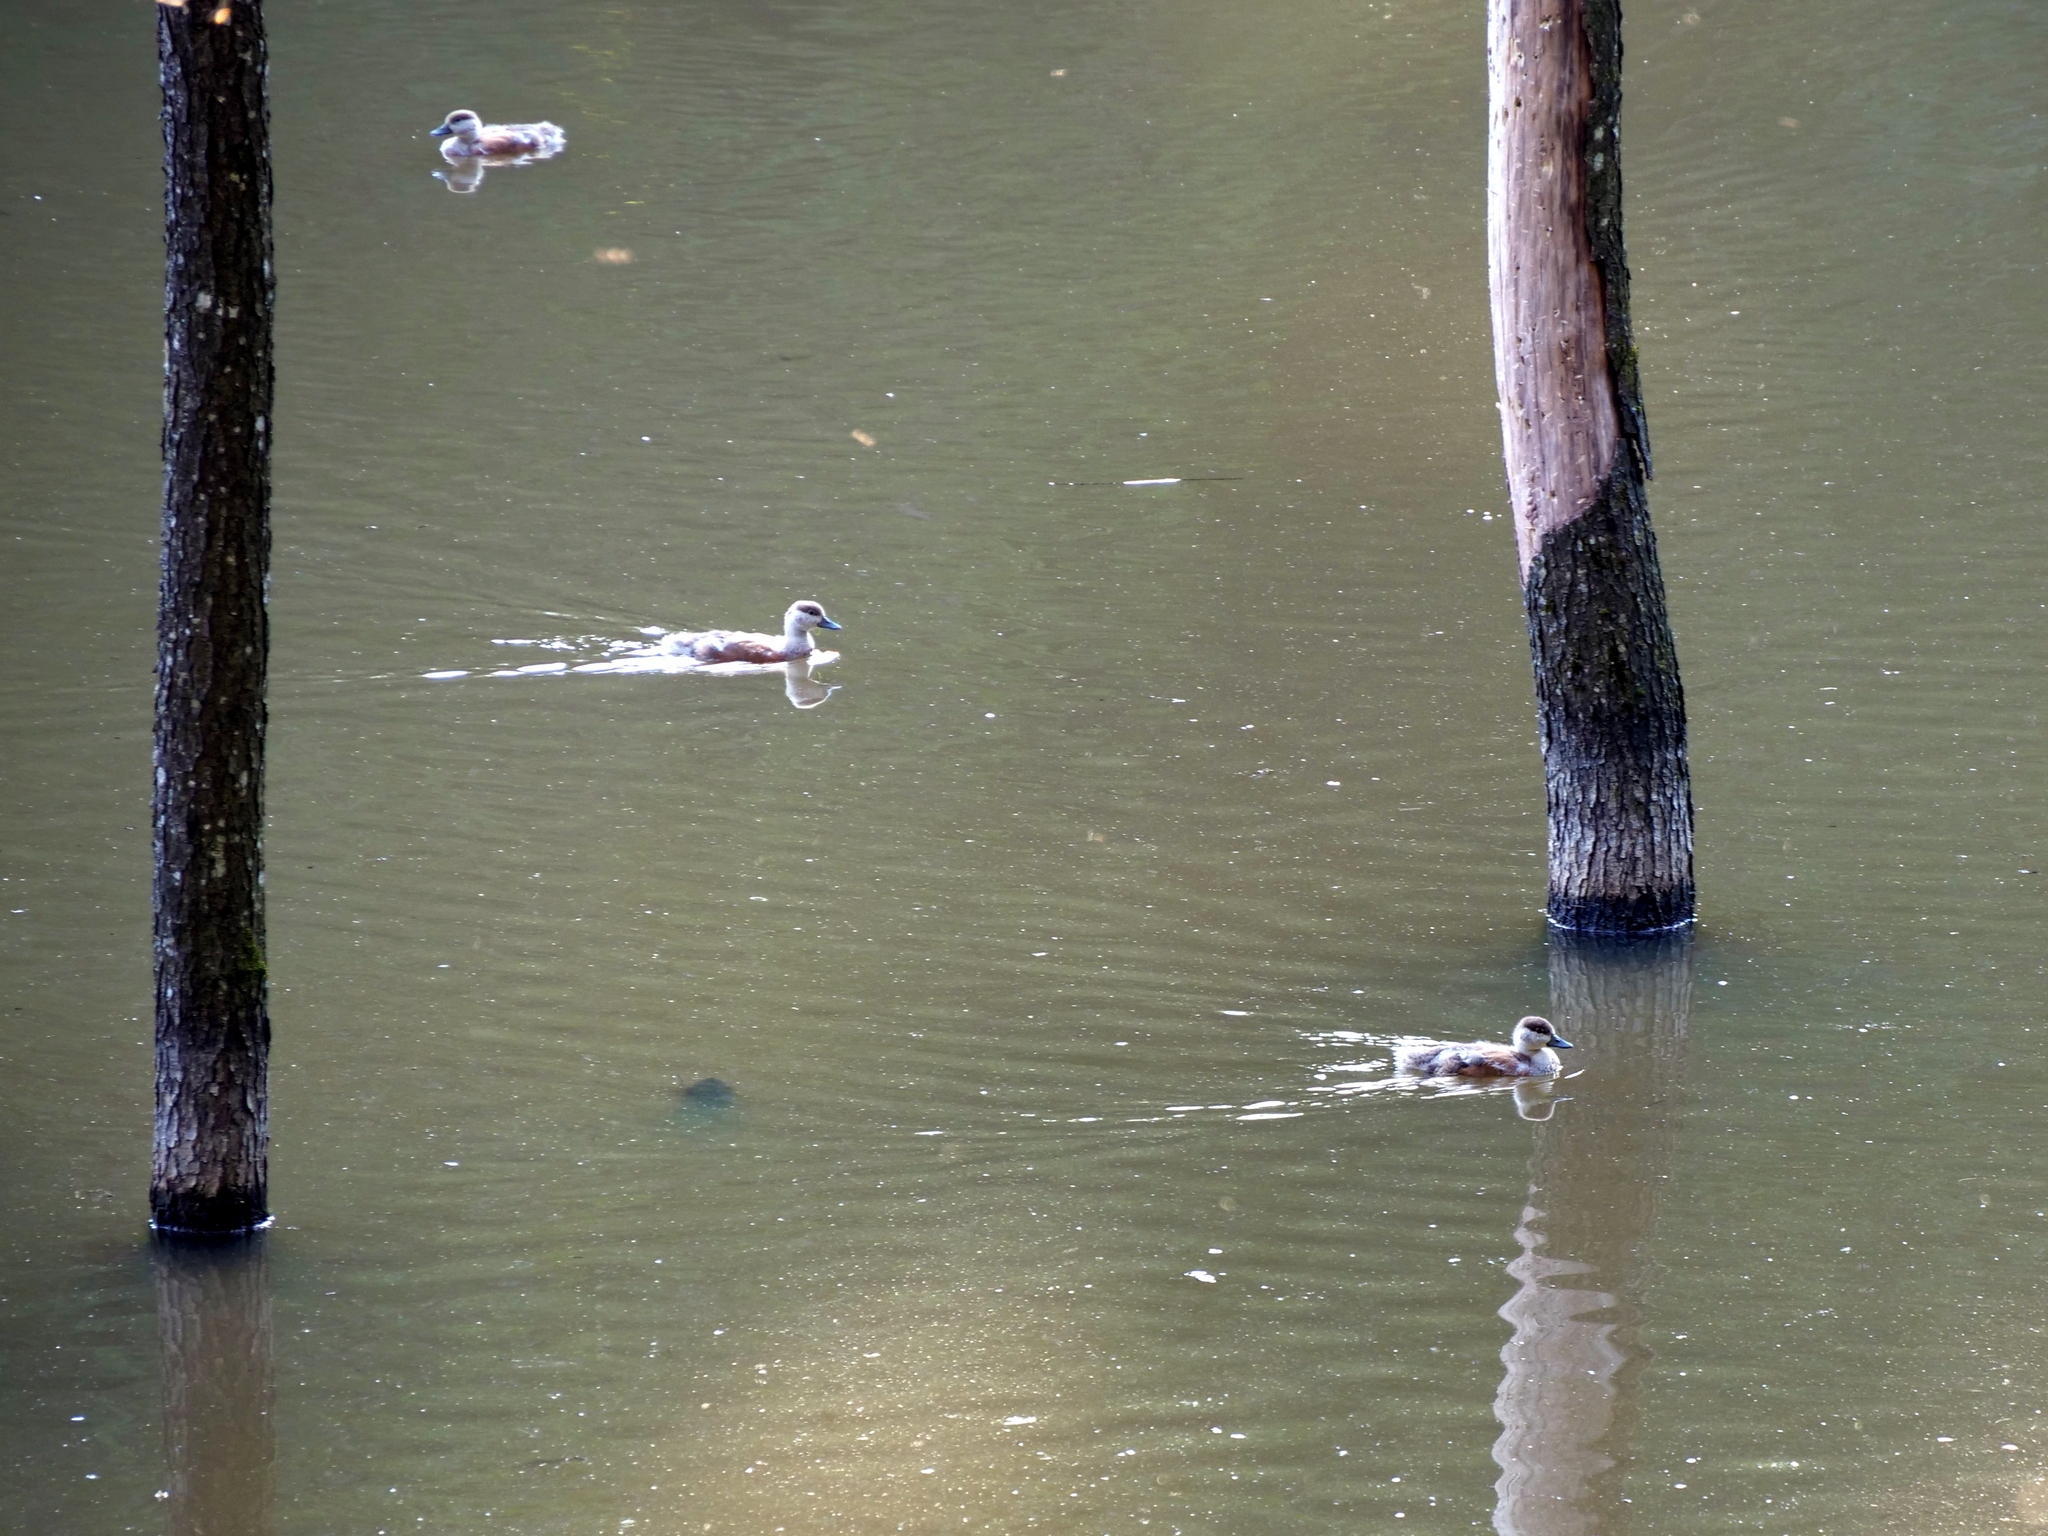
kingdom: Animalia
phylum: Chordata
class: Aves
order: Anseriformes
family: Anatidae
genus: Tadorna
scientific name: Tadorna ferruginea
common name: Ruddy shelduck
